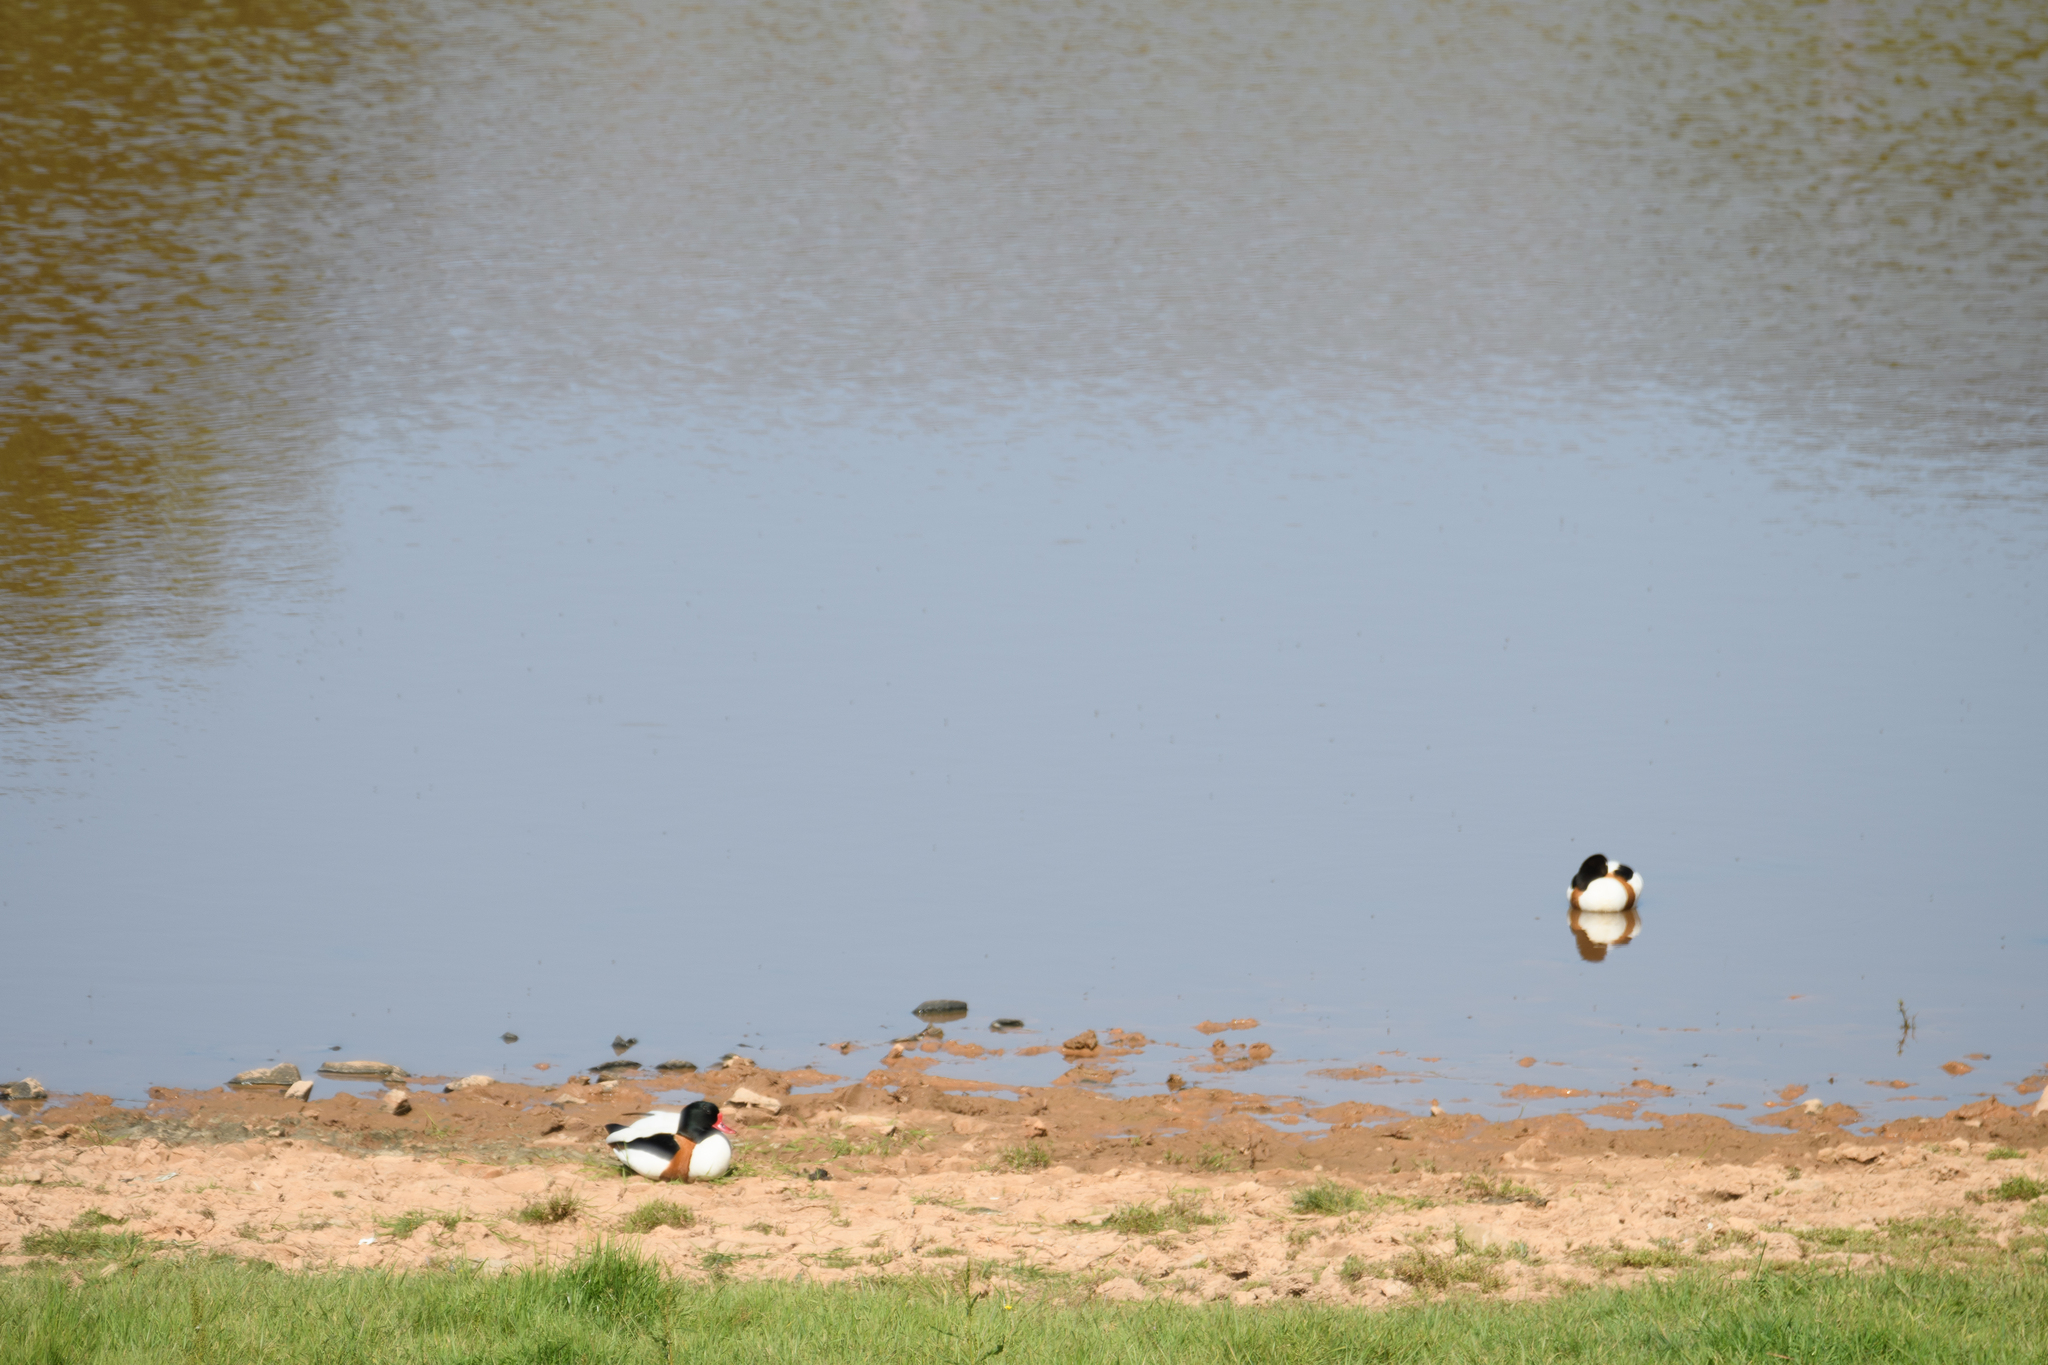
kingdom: Animalia
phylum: Chordata
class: Aves
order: Anseriformes
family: Anatidae
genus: Tadorna
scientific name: Tadorna tadorna
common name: Common shelduck
